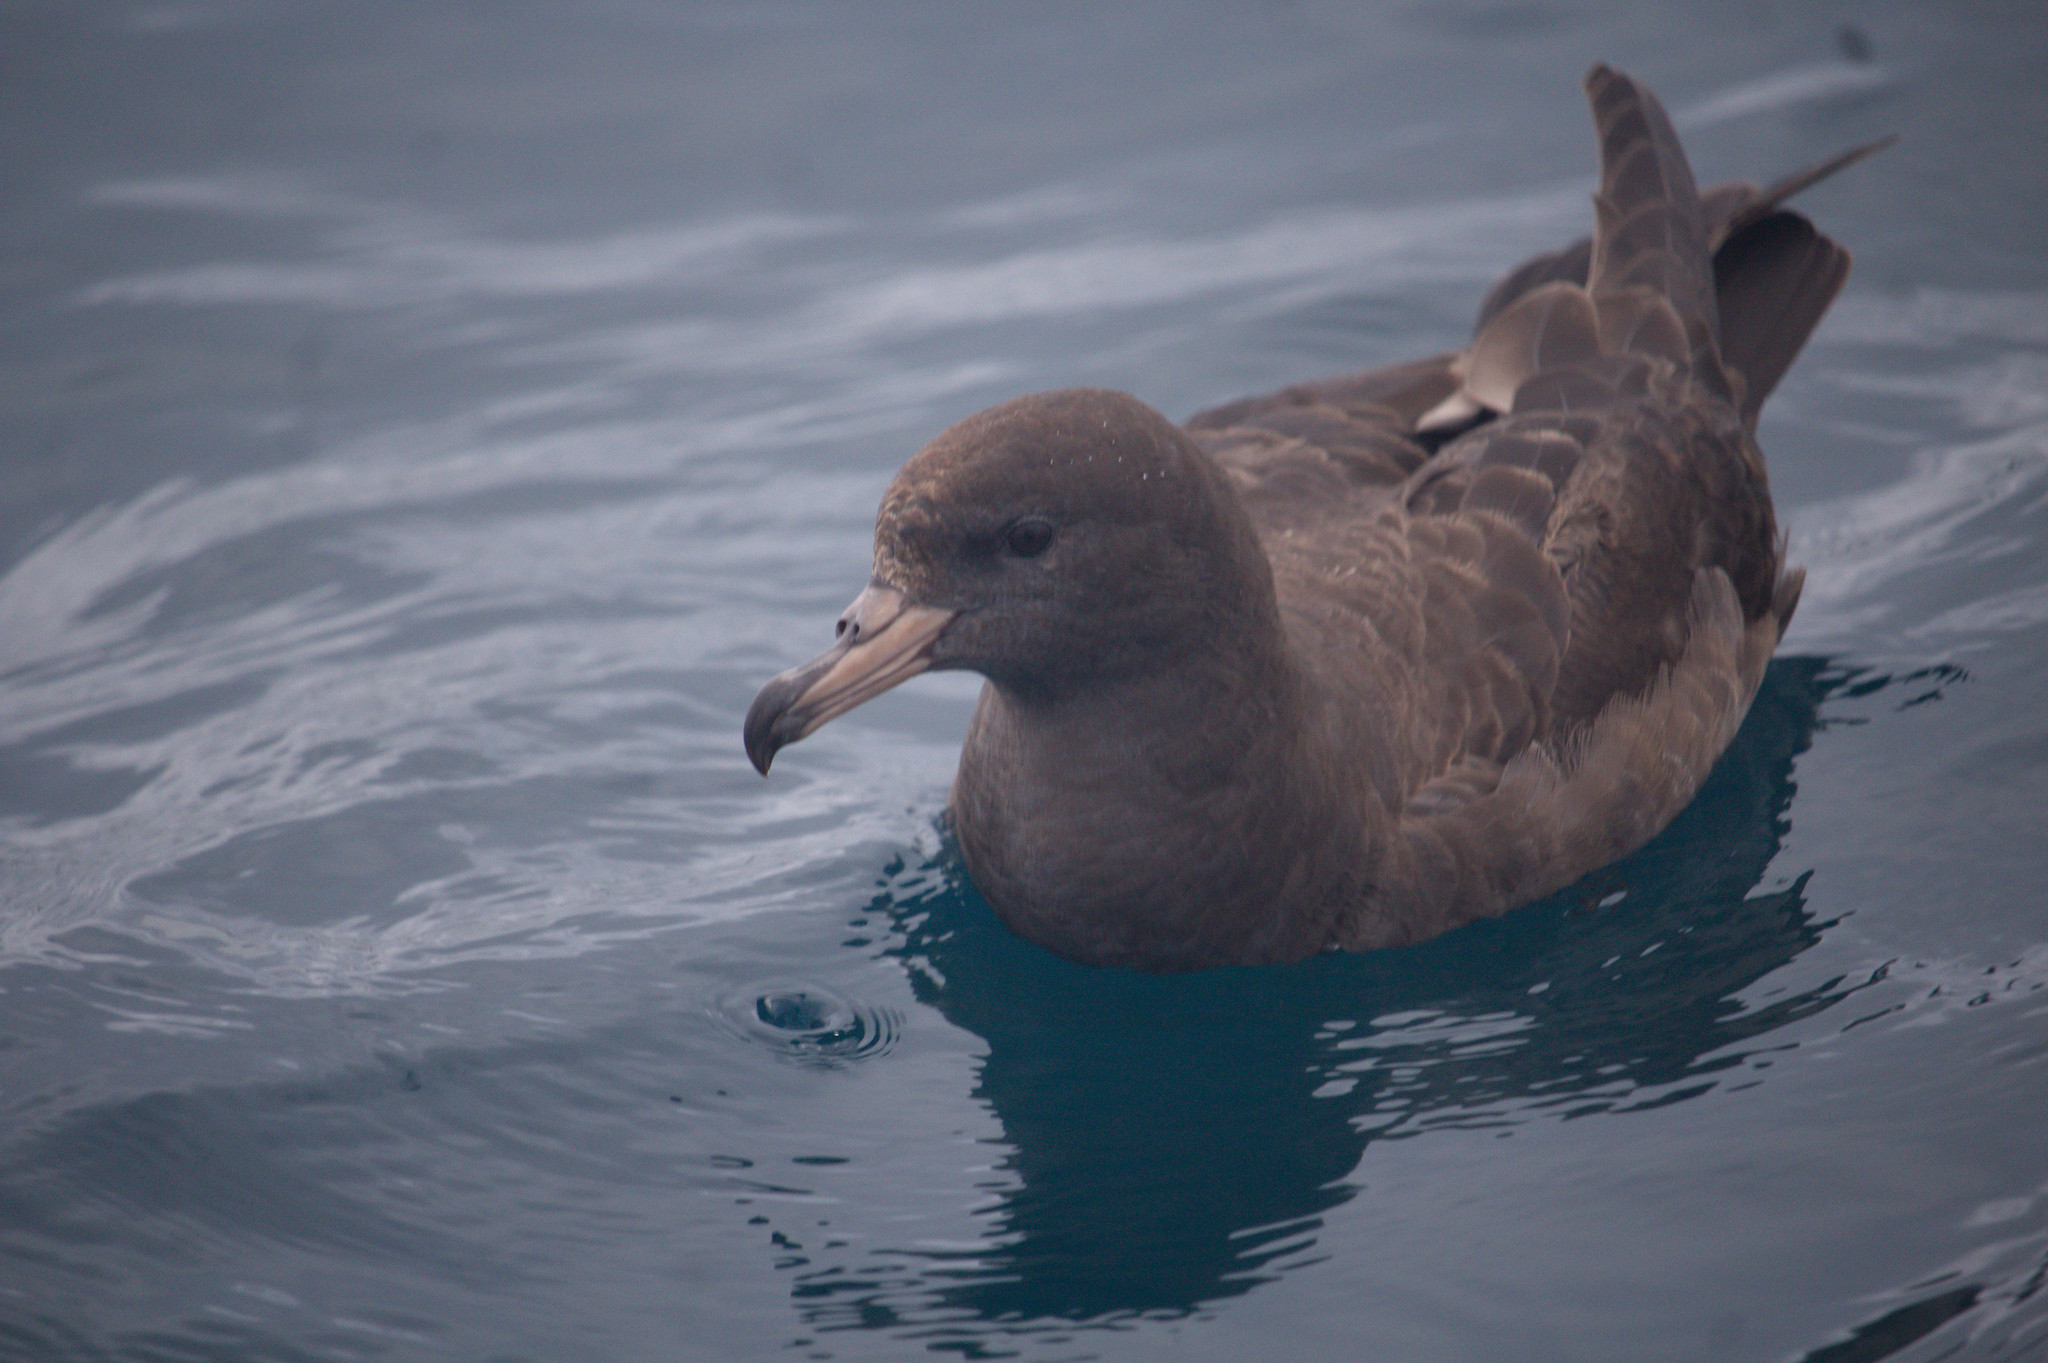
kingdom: Animalia
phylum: Chordata
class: Aves
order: Procellariiformes
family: Procellariidae
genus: Puffinus
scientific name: Puffinus carneipes
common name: Flesh-footed shearwater
